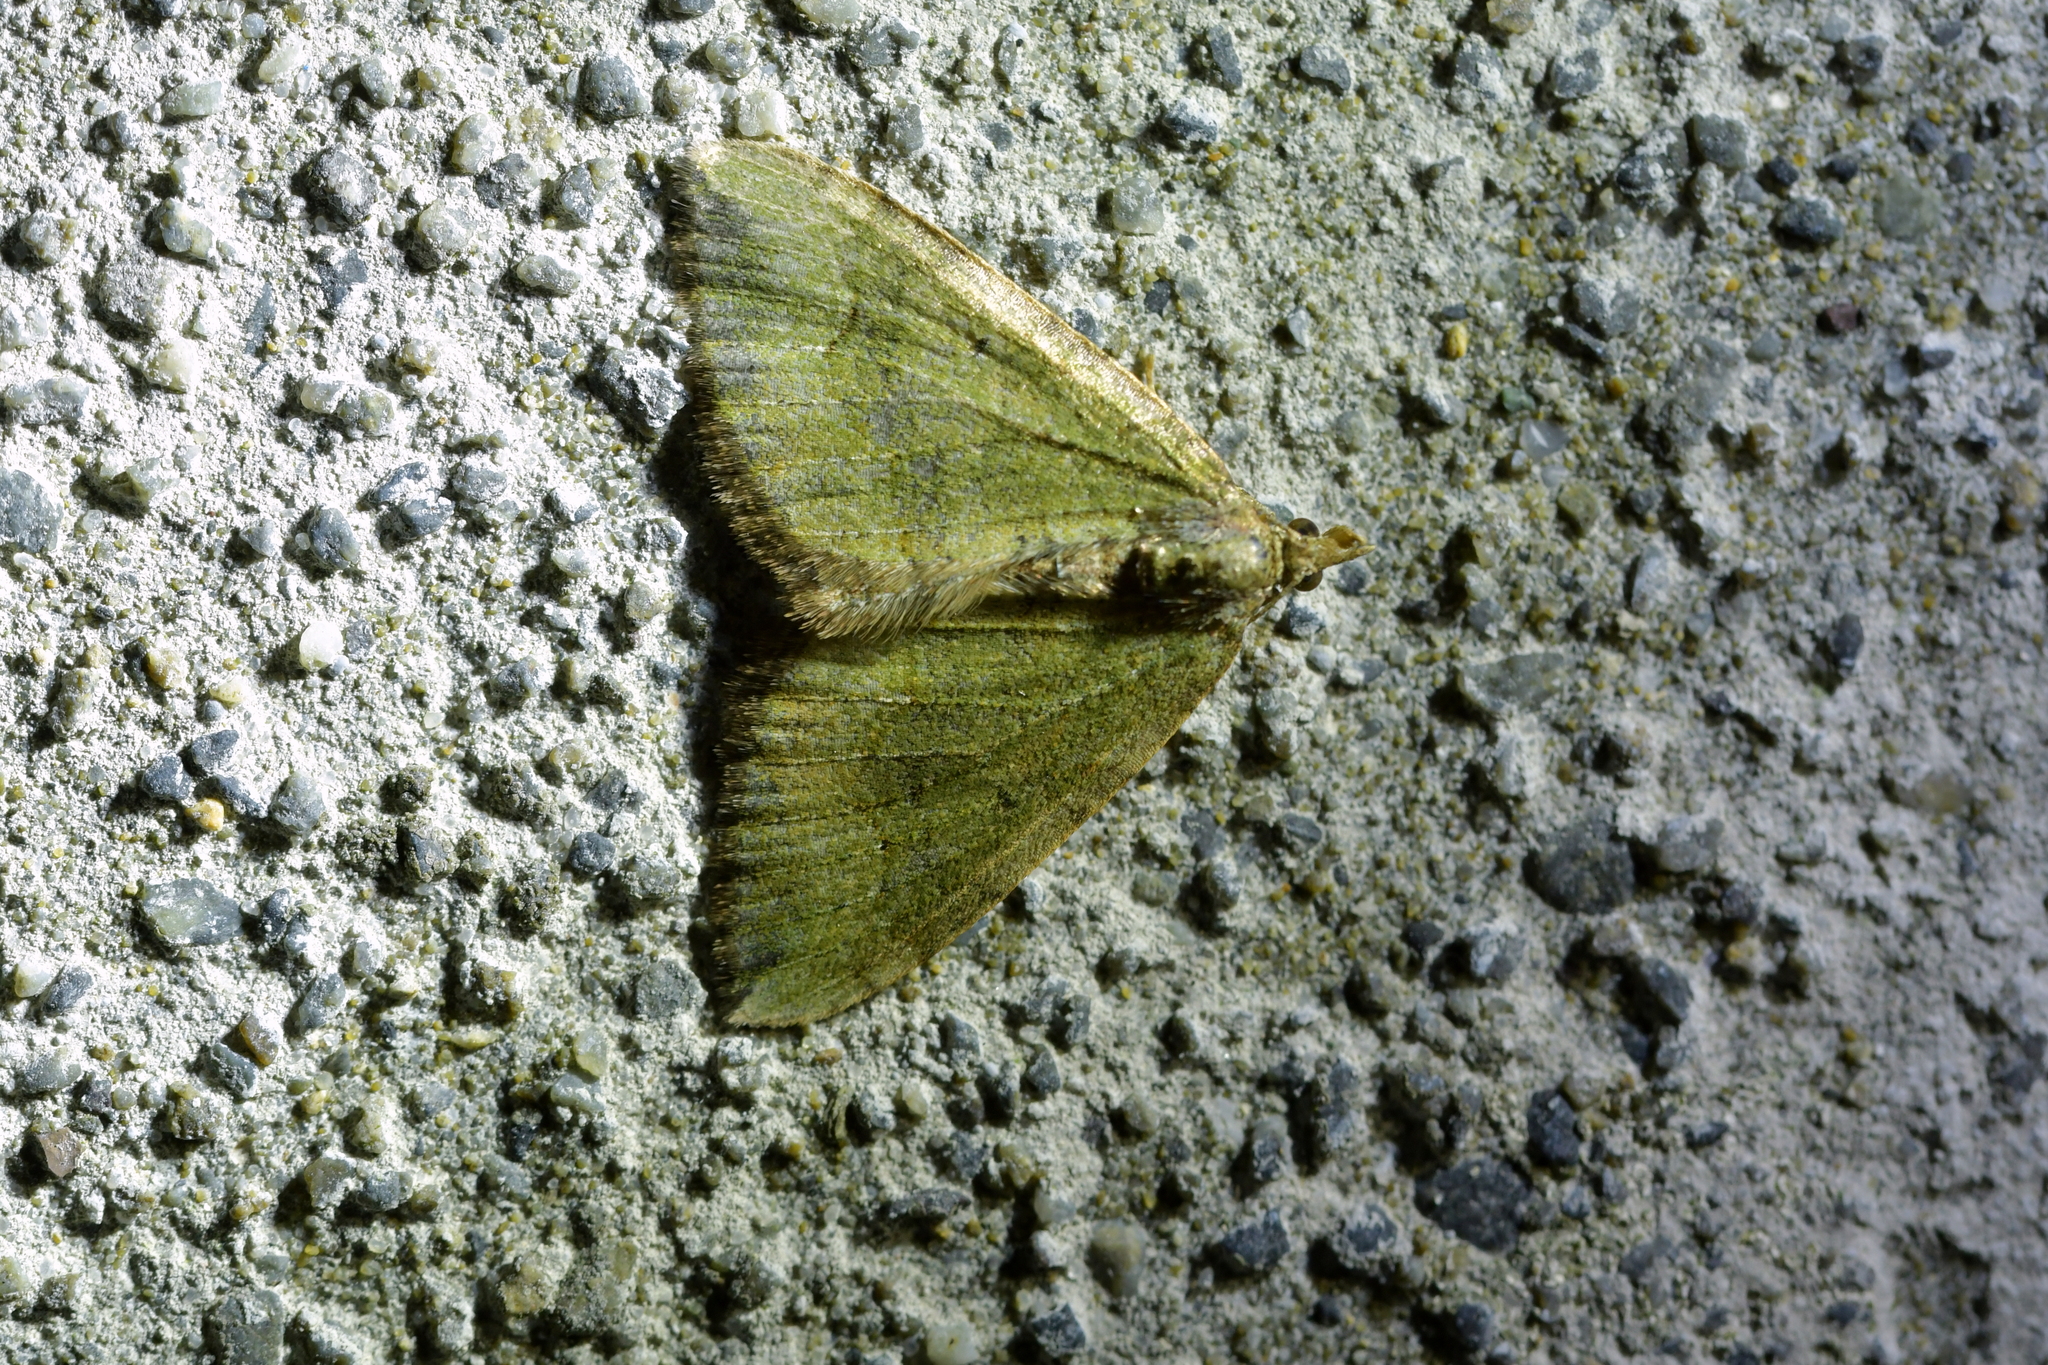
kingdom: Animalia
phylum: Arthropoda
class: Insecta
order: Lepidoptera
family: Geometridae
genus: Epyaxa
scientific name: Epyaxa rosearia
